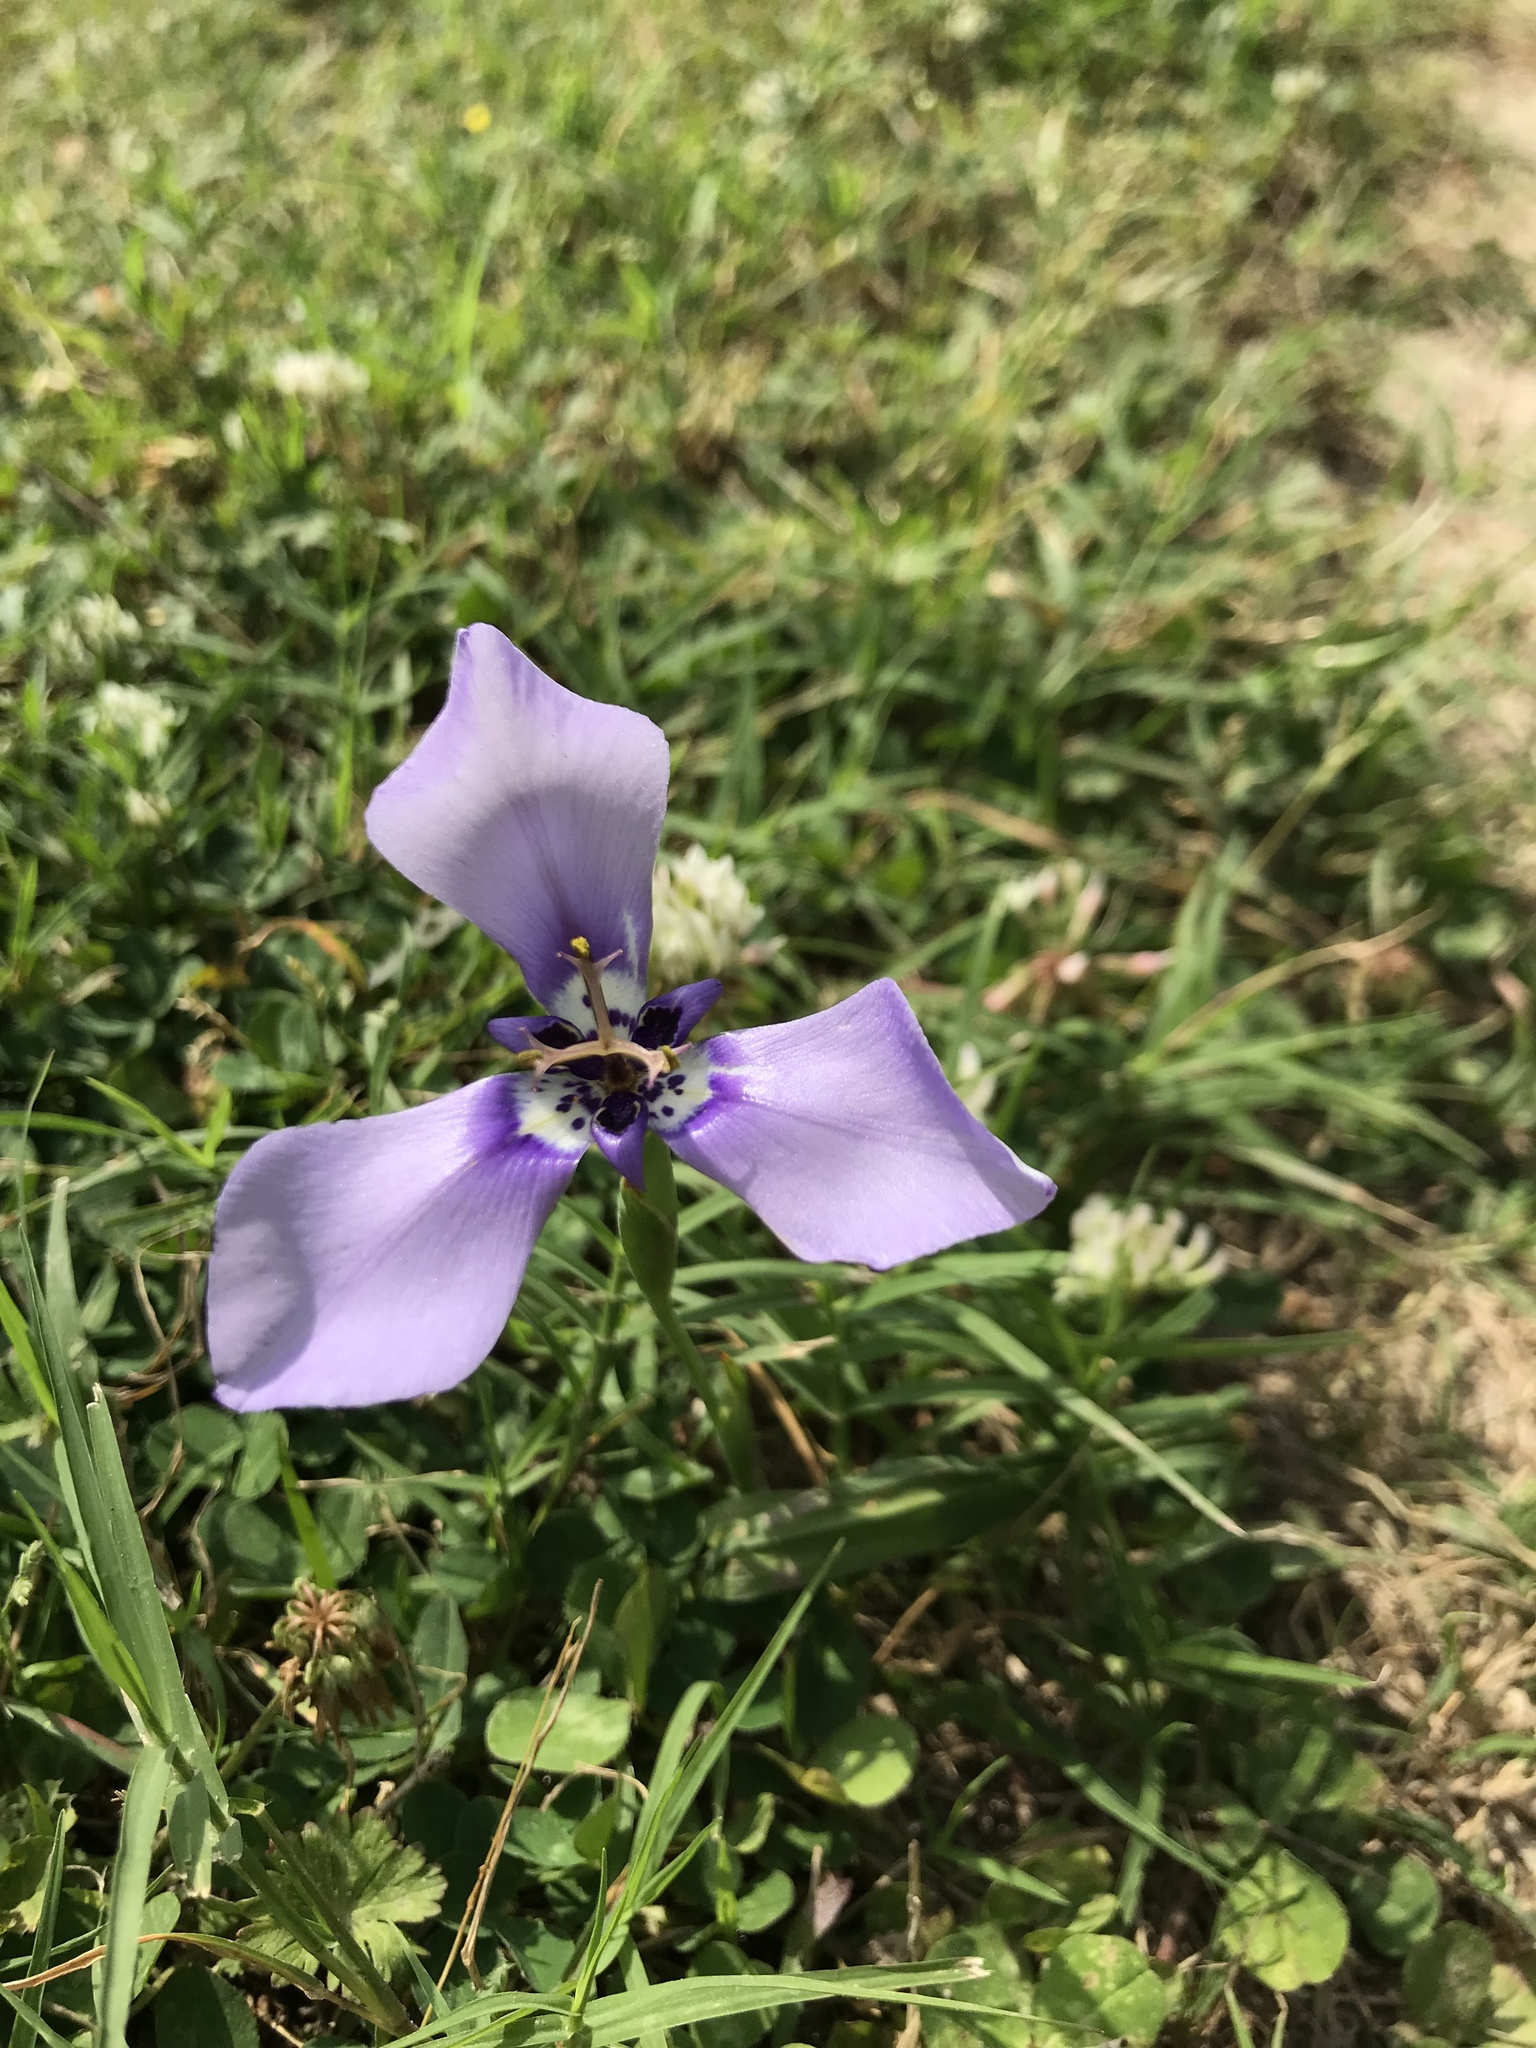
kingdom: Plantae
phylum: Tracheophyta
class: Liliopsida
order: Asparagales
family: Iridaceae
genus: Herbertia
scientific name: Herbertia lahue
